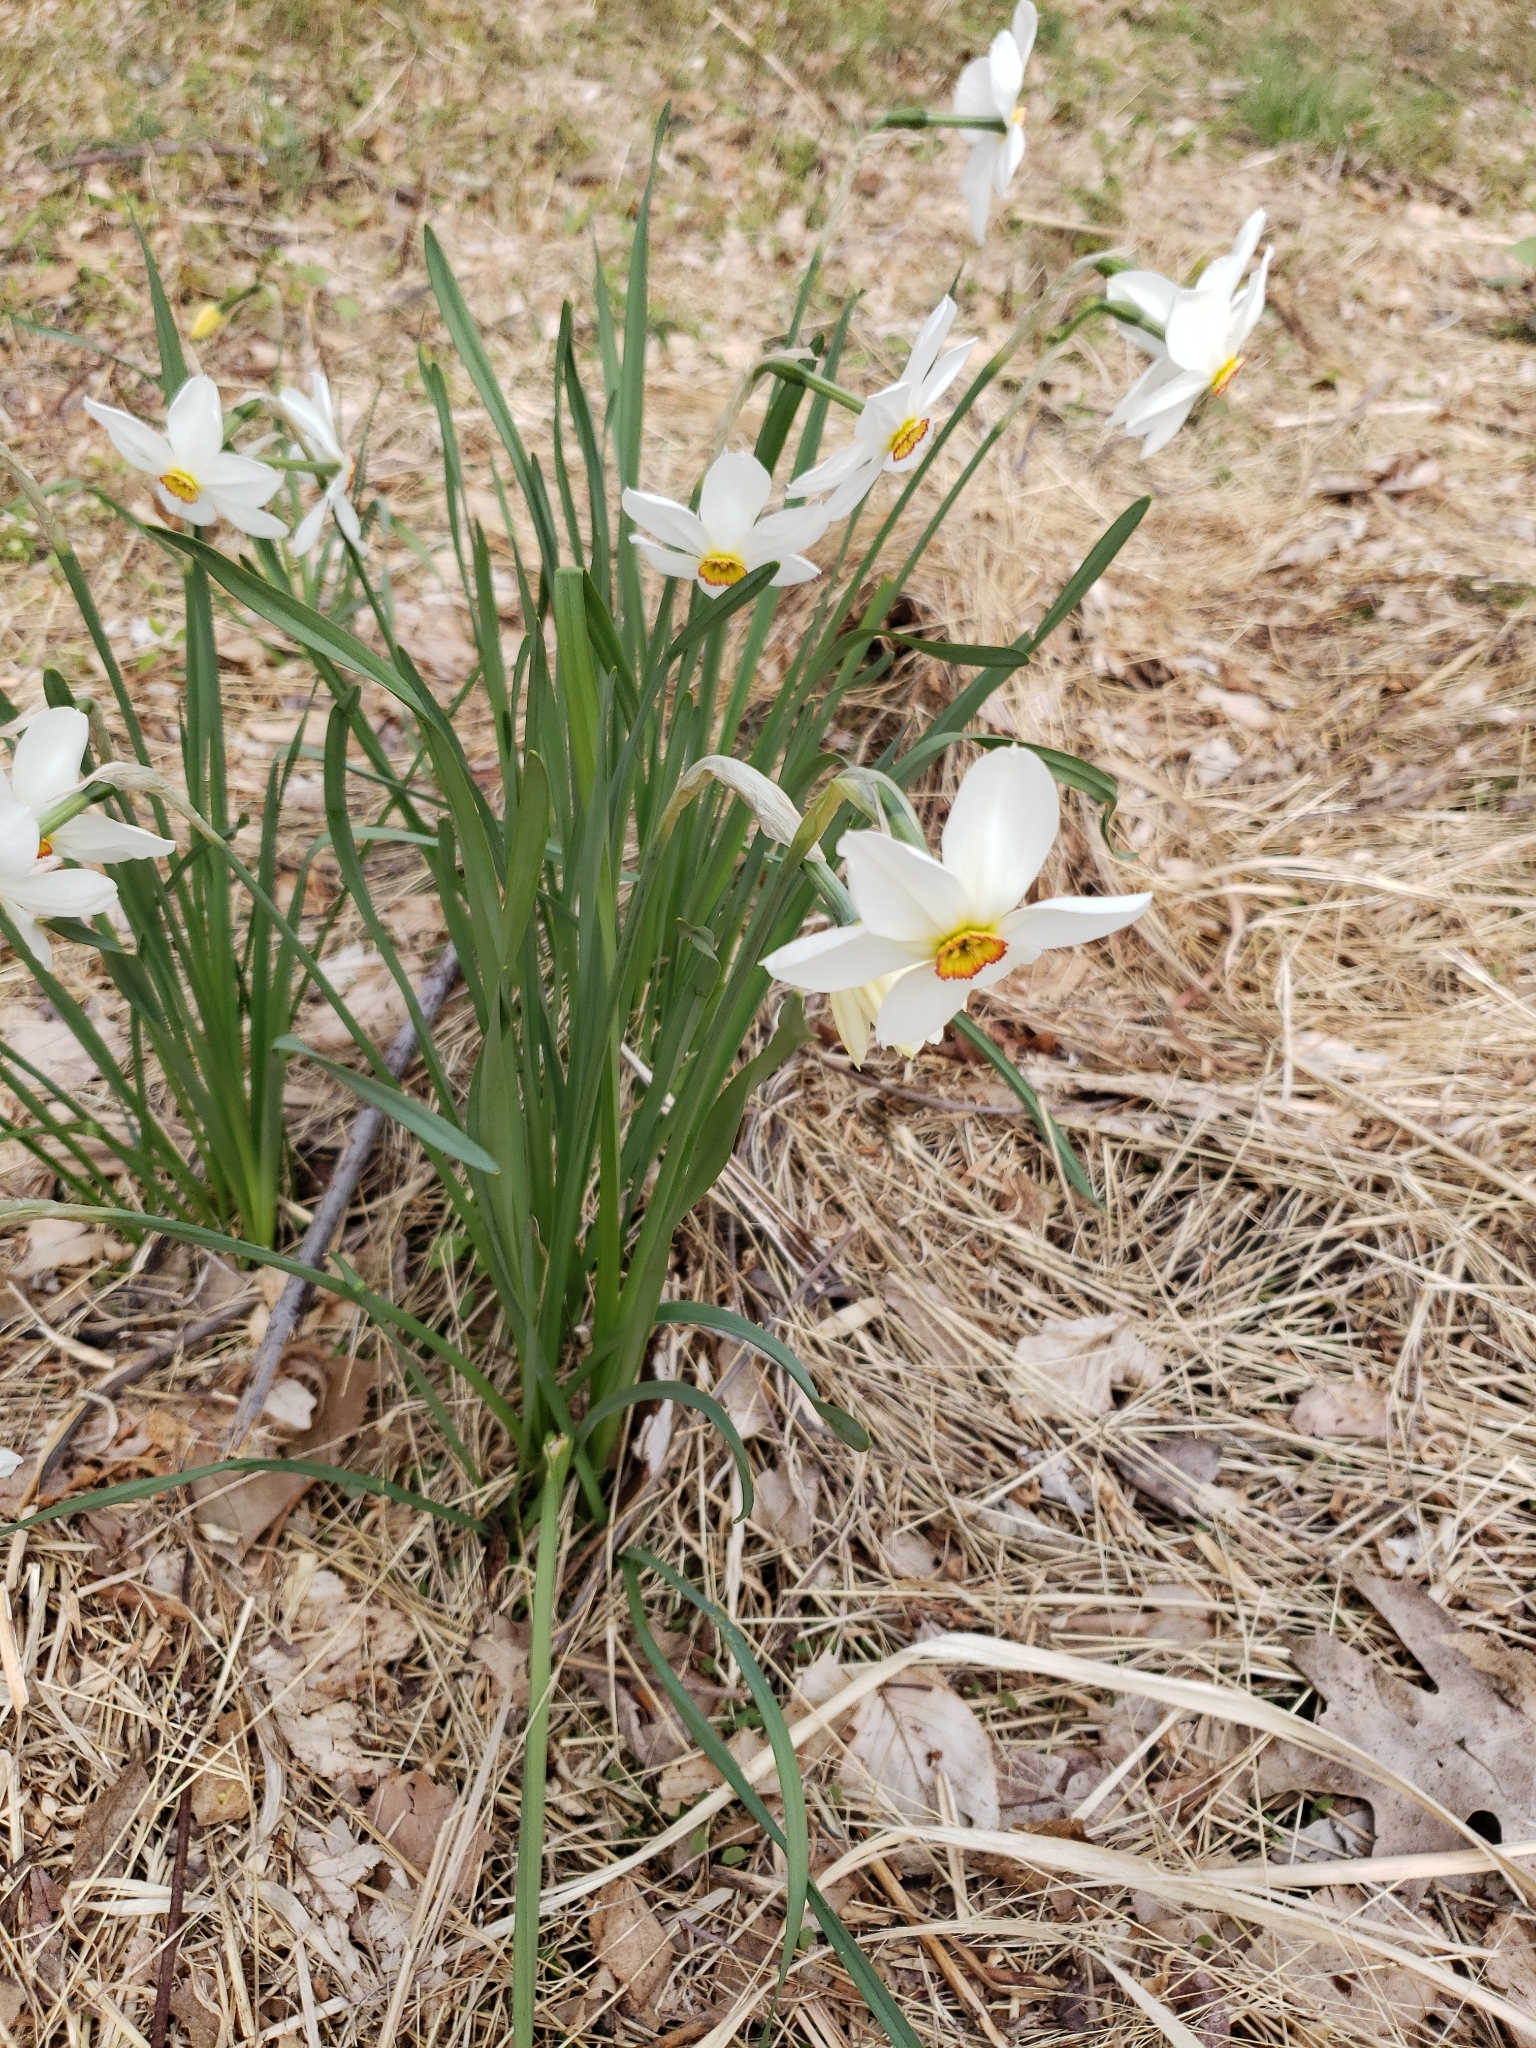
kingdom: Plantae
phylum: Tracheophyta
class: Liliopsida
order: Asparagales
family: Amaryllidaceae
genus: Narcissus
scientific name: Narcissus poeticus
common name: Pheasant's-eye daffodil
